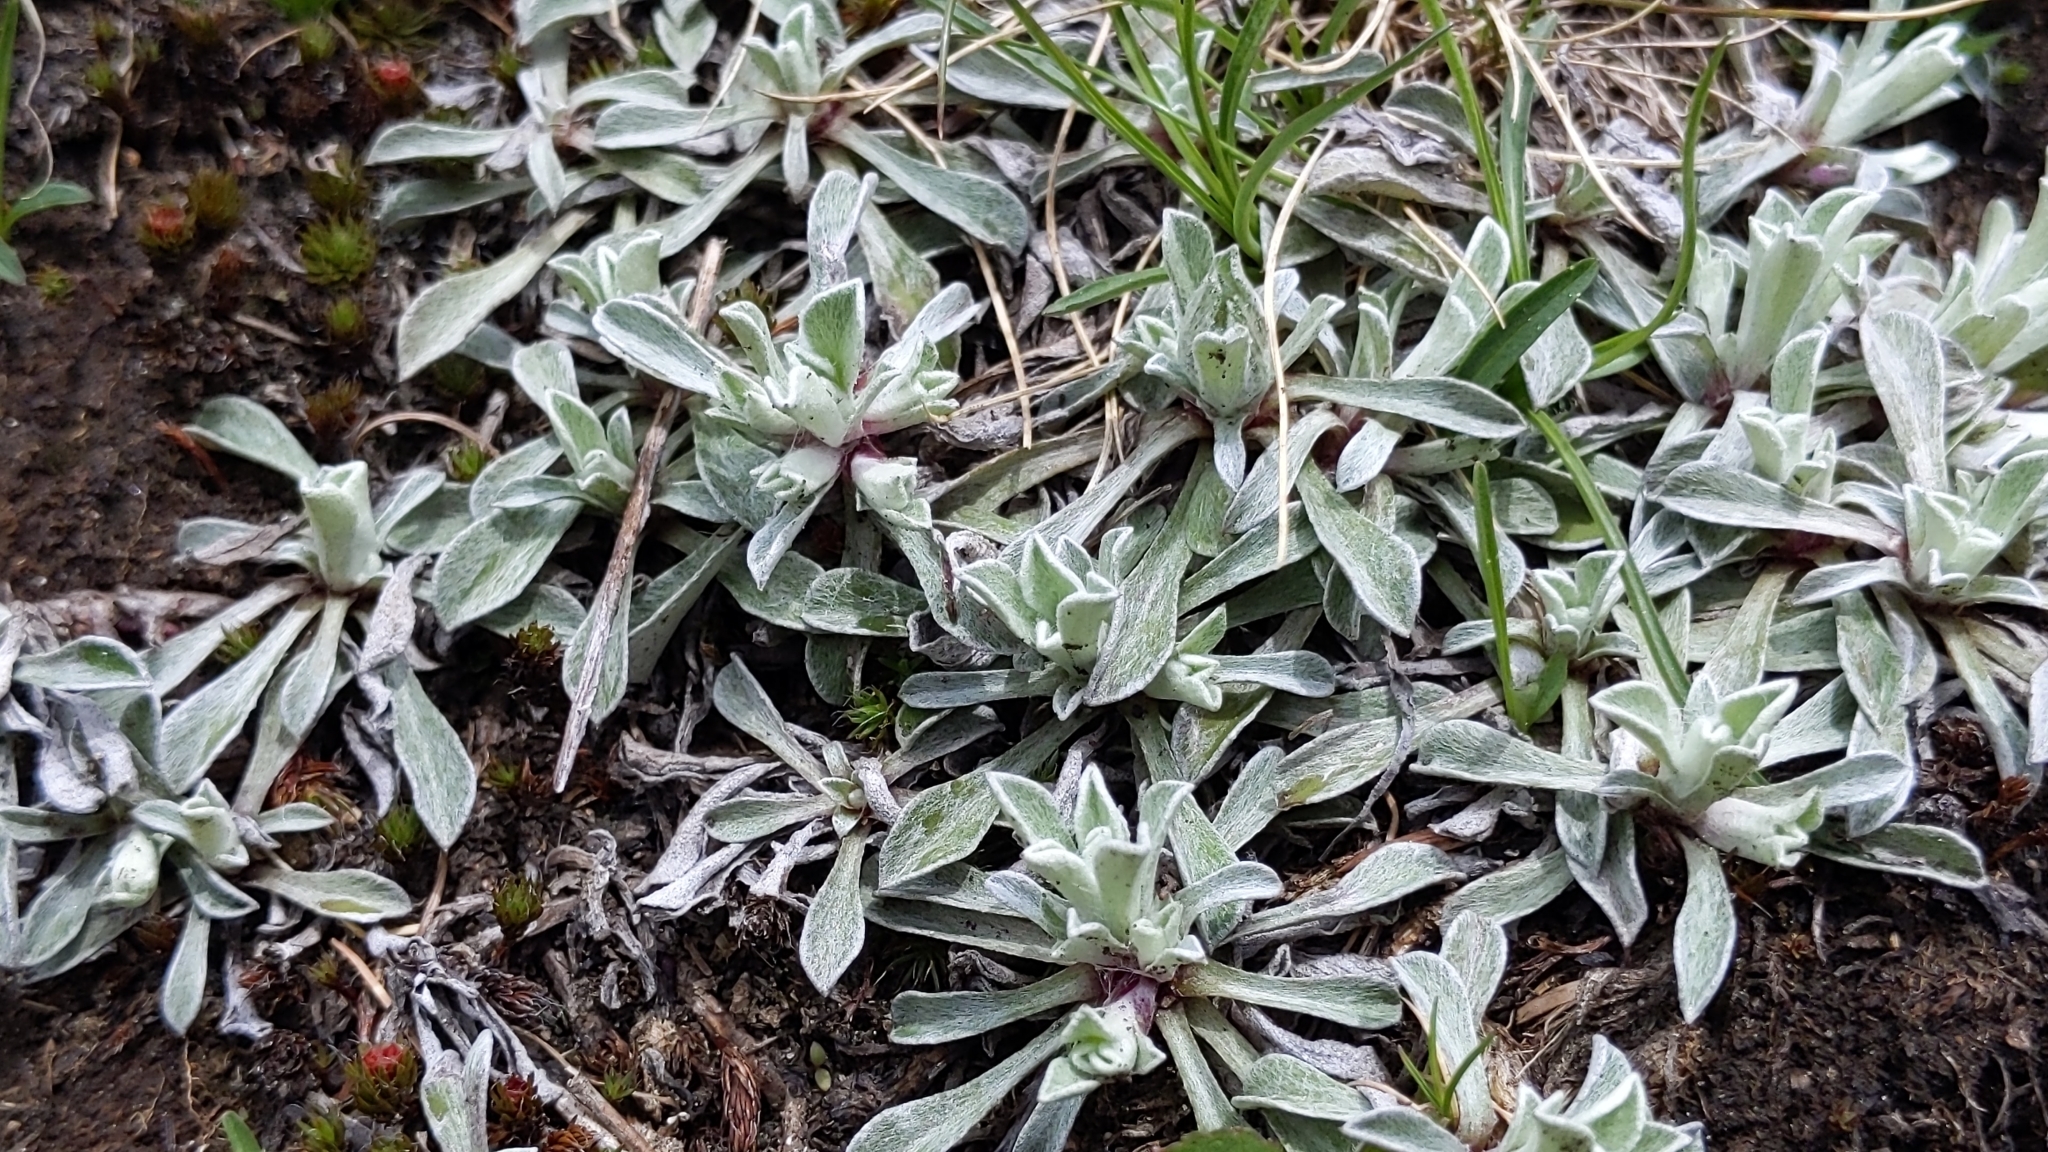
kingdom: Plantae
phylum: Tracheophyta
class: Magnoliopsida
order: Asterales
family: Asteraceae
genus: Antennaria
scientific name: Antennaria dioica
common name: Mountain everlasting
